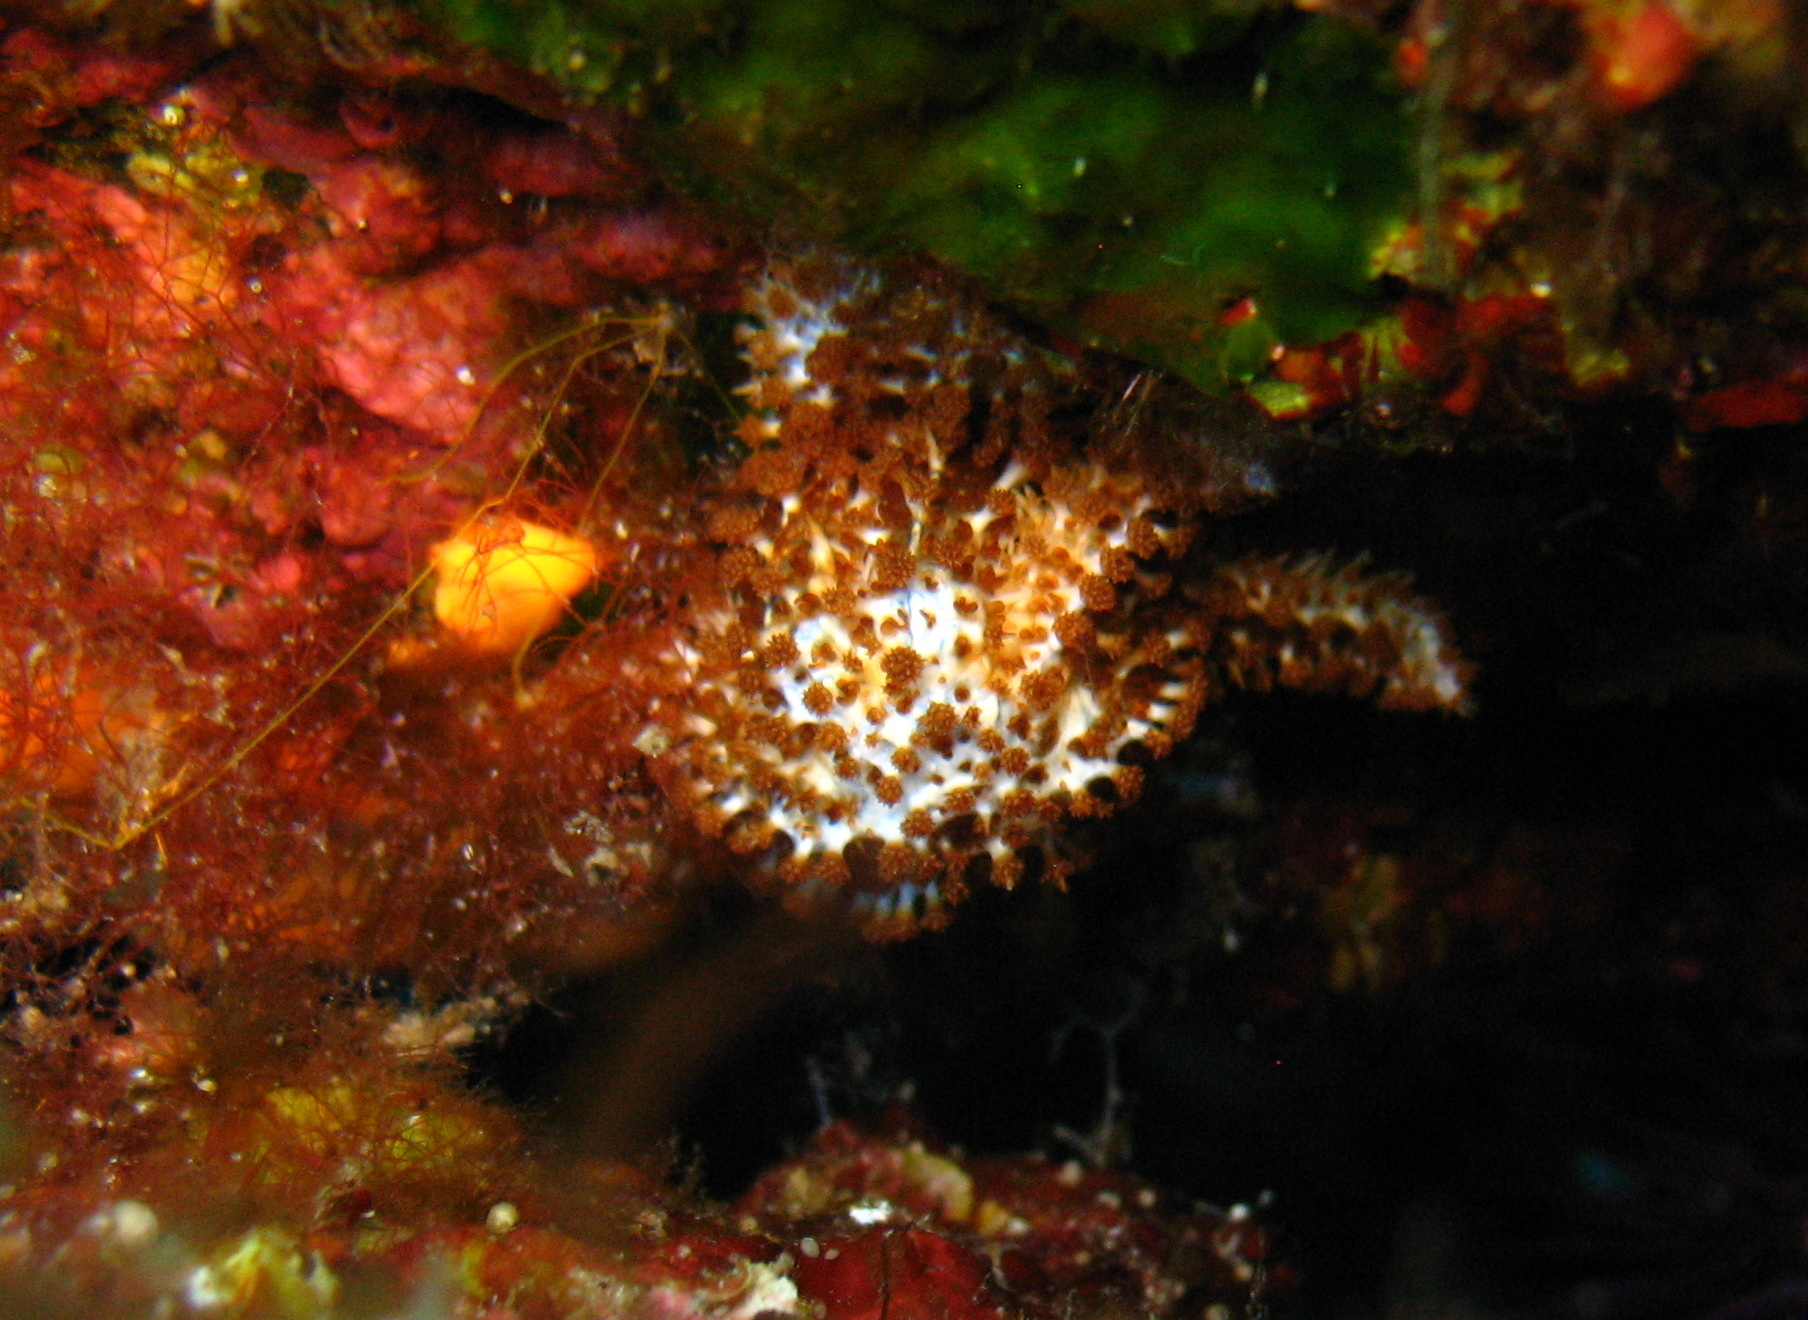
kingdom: Animalia
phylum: Echinodermata
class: Asteroidea
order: Forcipulatida
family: Asteriidae
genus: Coscinasterias
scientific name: Coscinasterias tenuispina
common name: Blue spiny starfish
